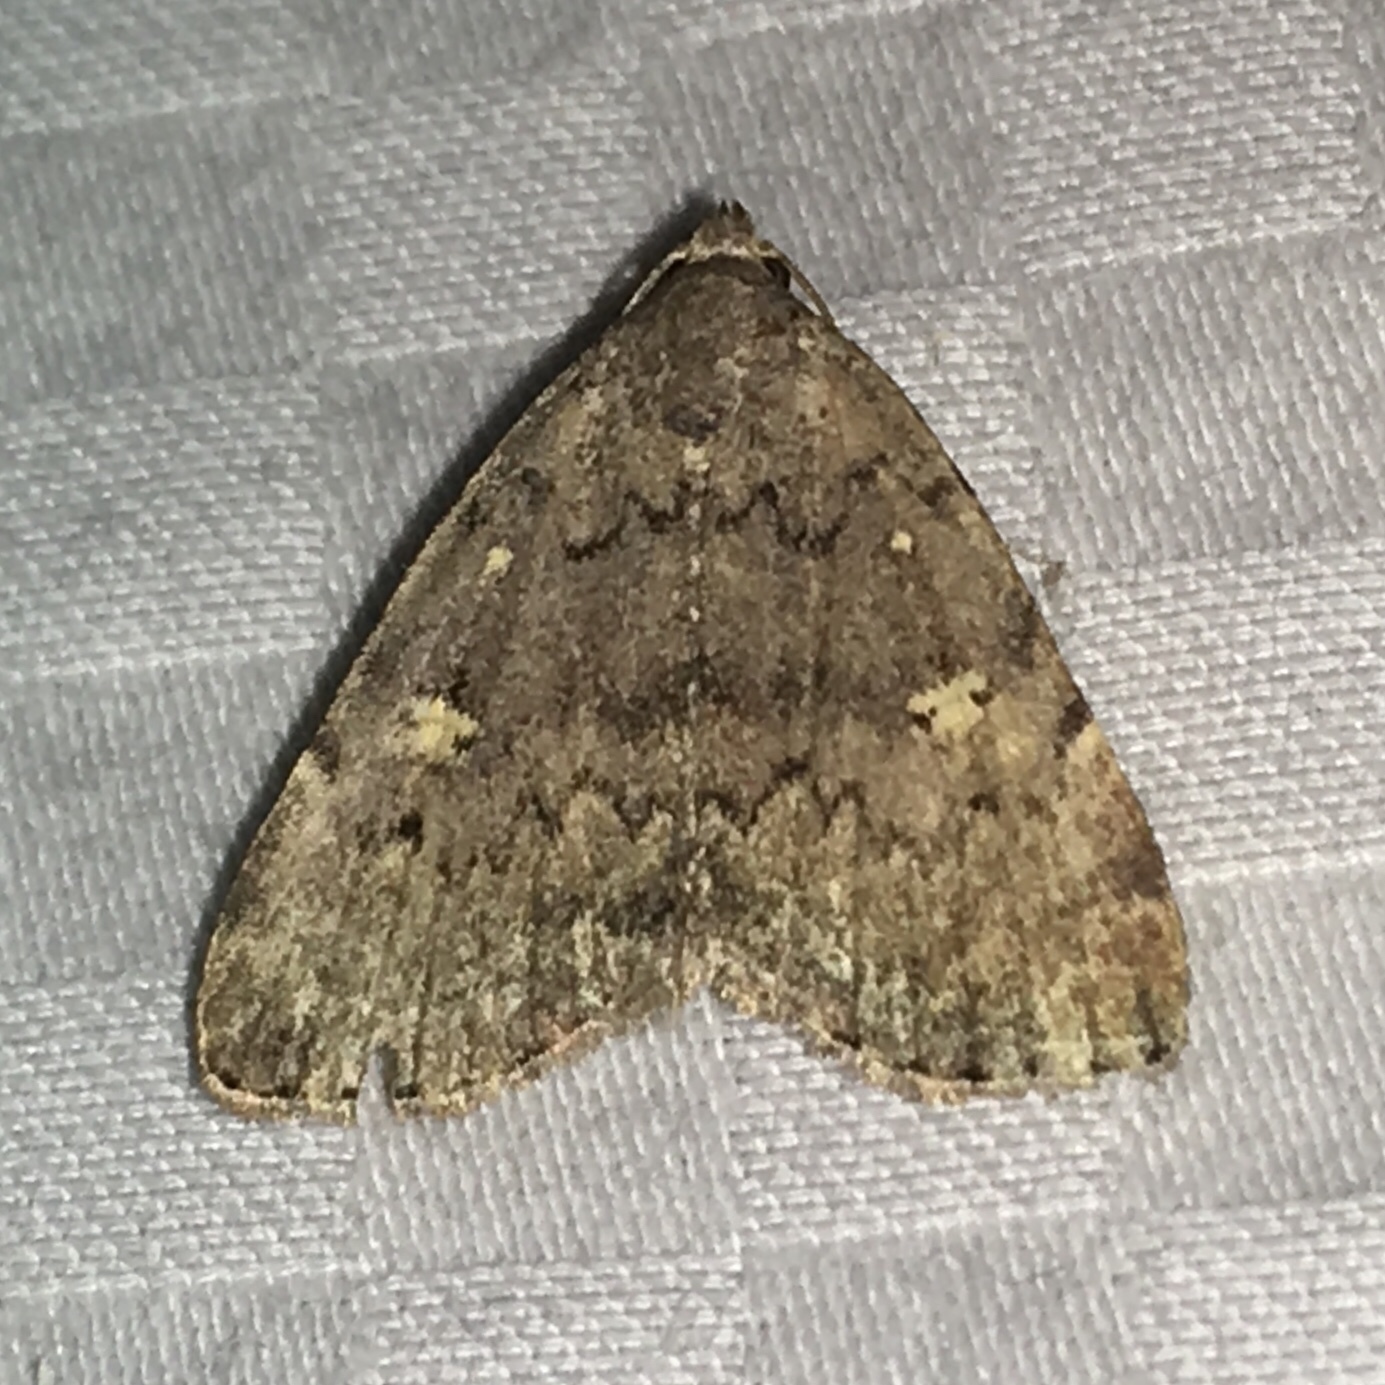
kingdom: Animalia
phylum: Arthropoda
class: Insecta
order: Lepidoptera
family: Erebidae
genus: Idia
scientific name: Idia aemula
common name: Common idia moth
